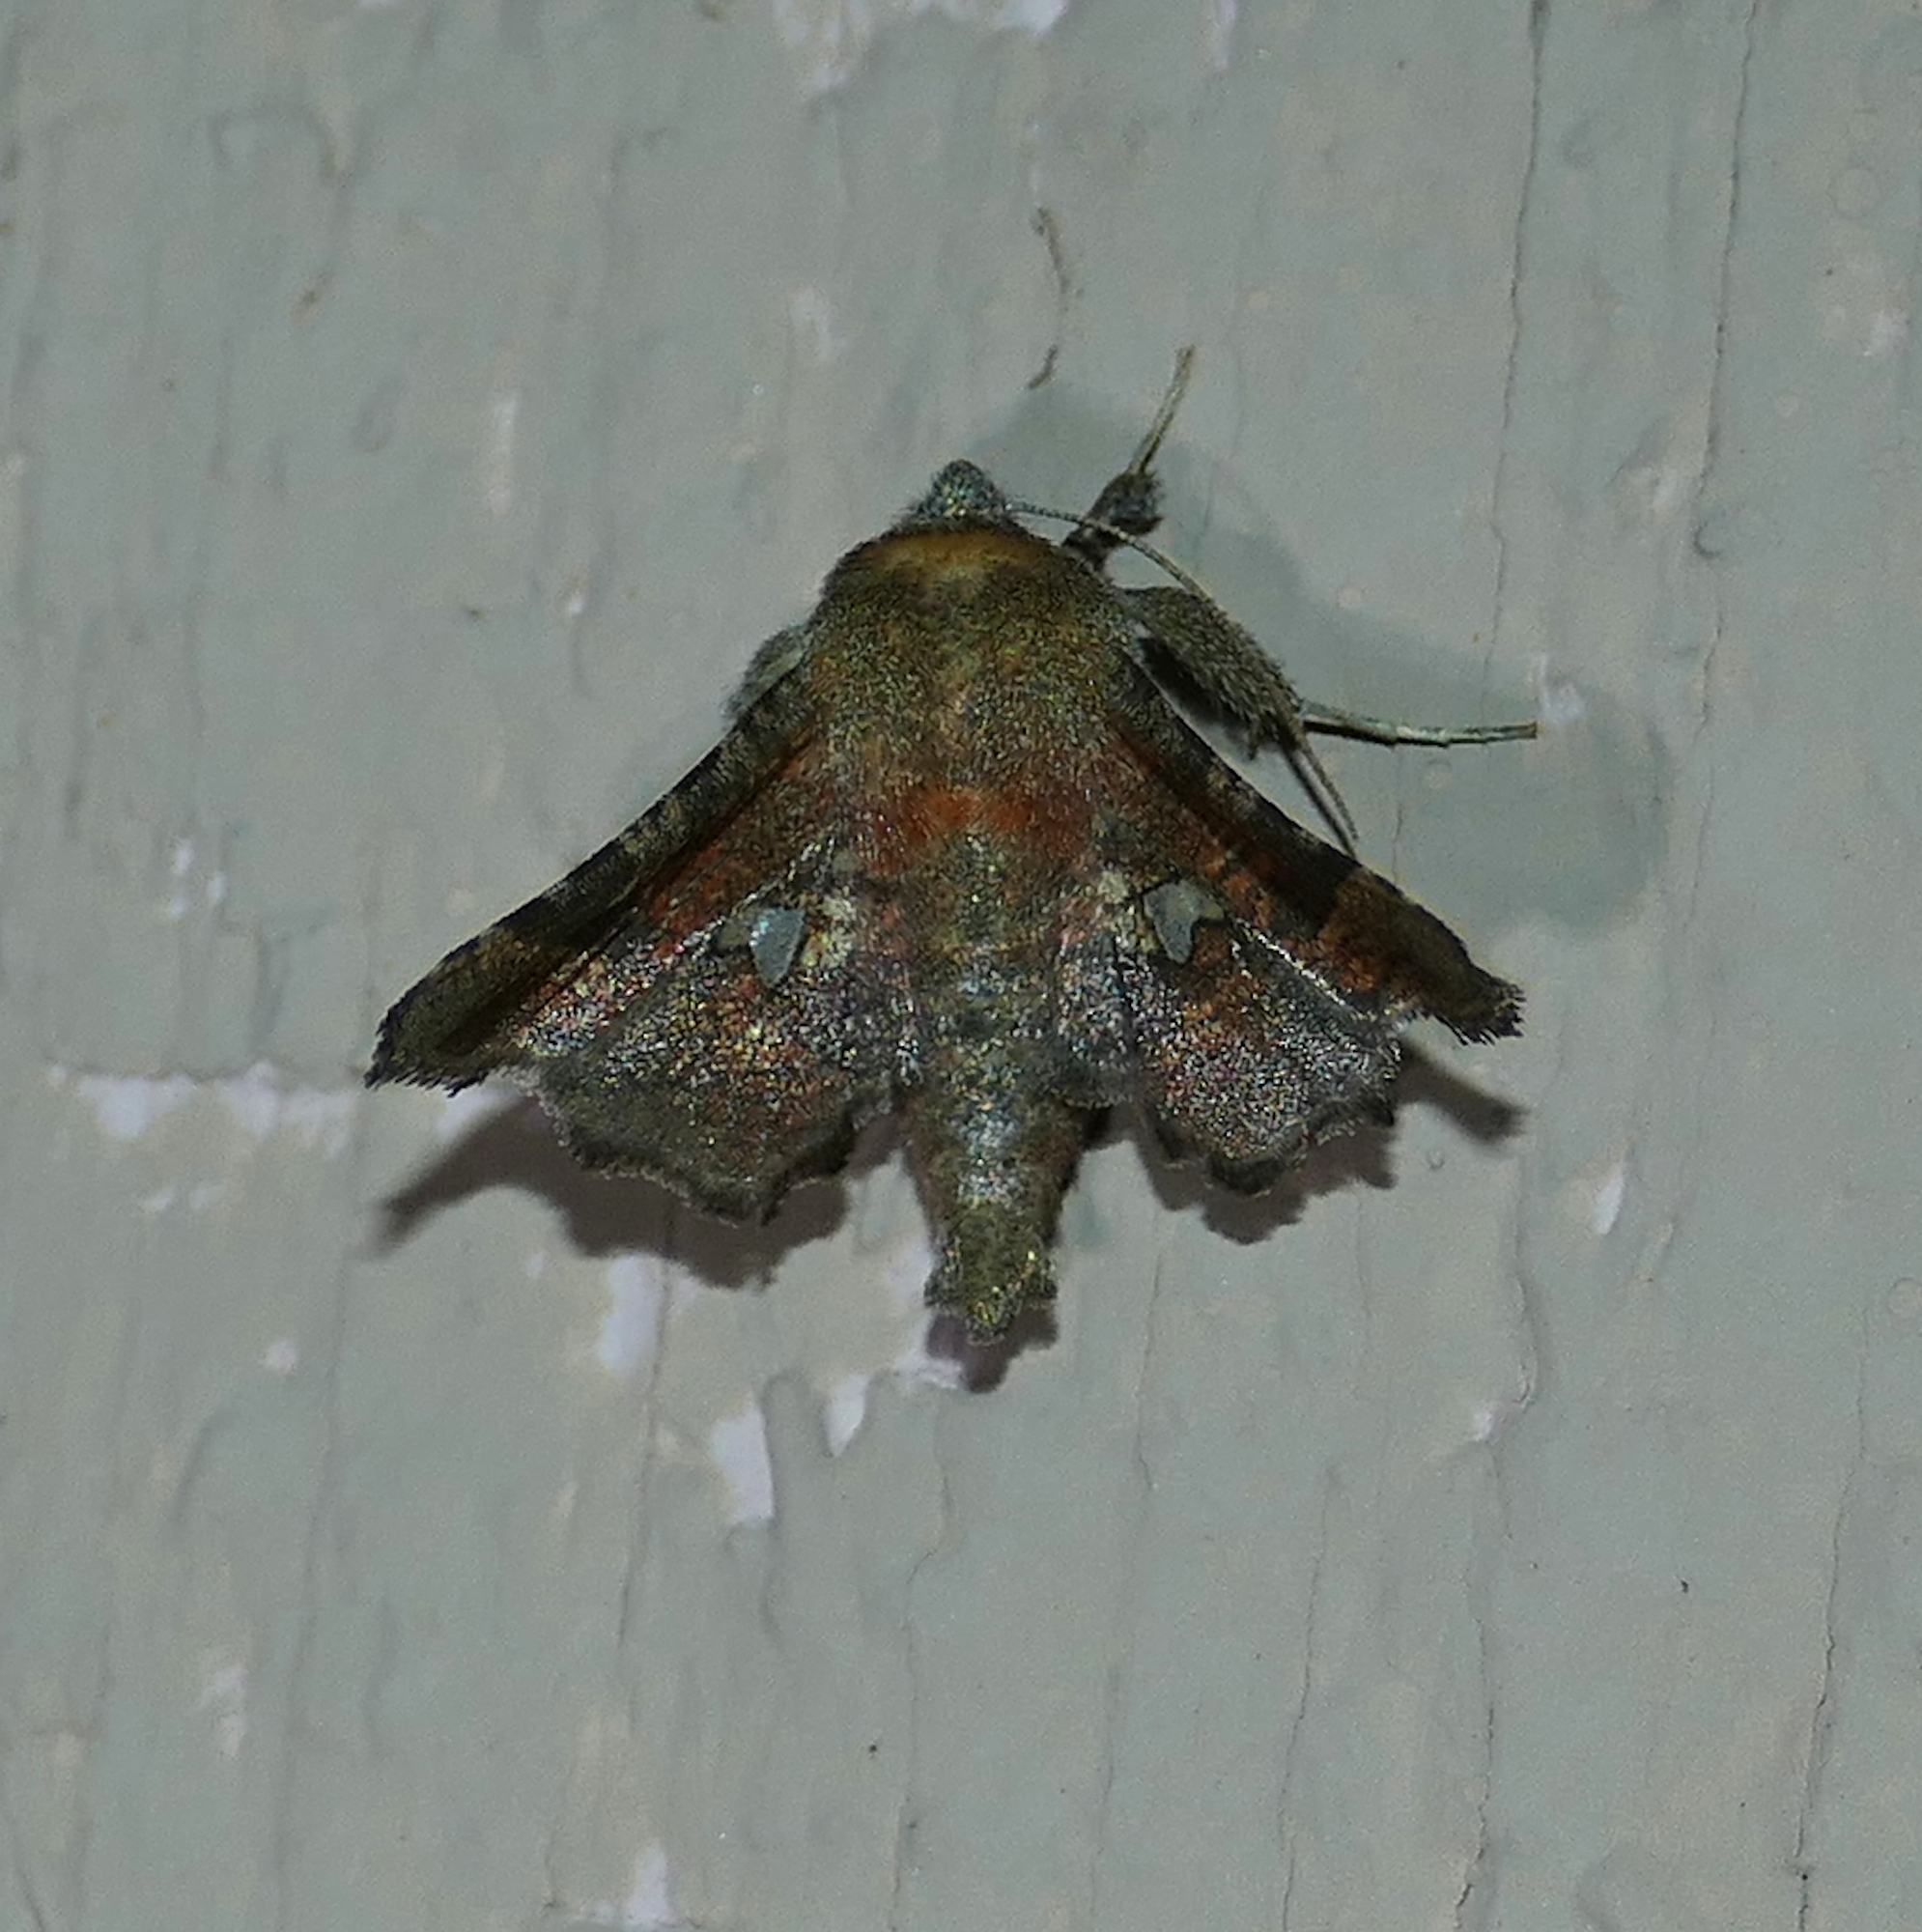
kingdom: Animalia
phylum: Arthropoda
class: Insecta
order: Lepidoptera
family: Thyrididae
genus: Dysodia
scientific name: Dysodia granulata
